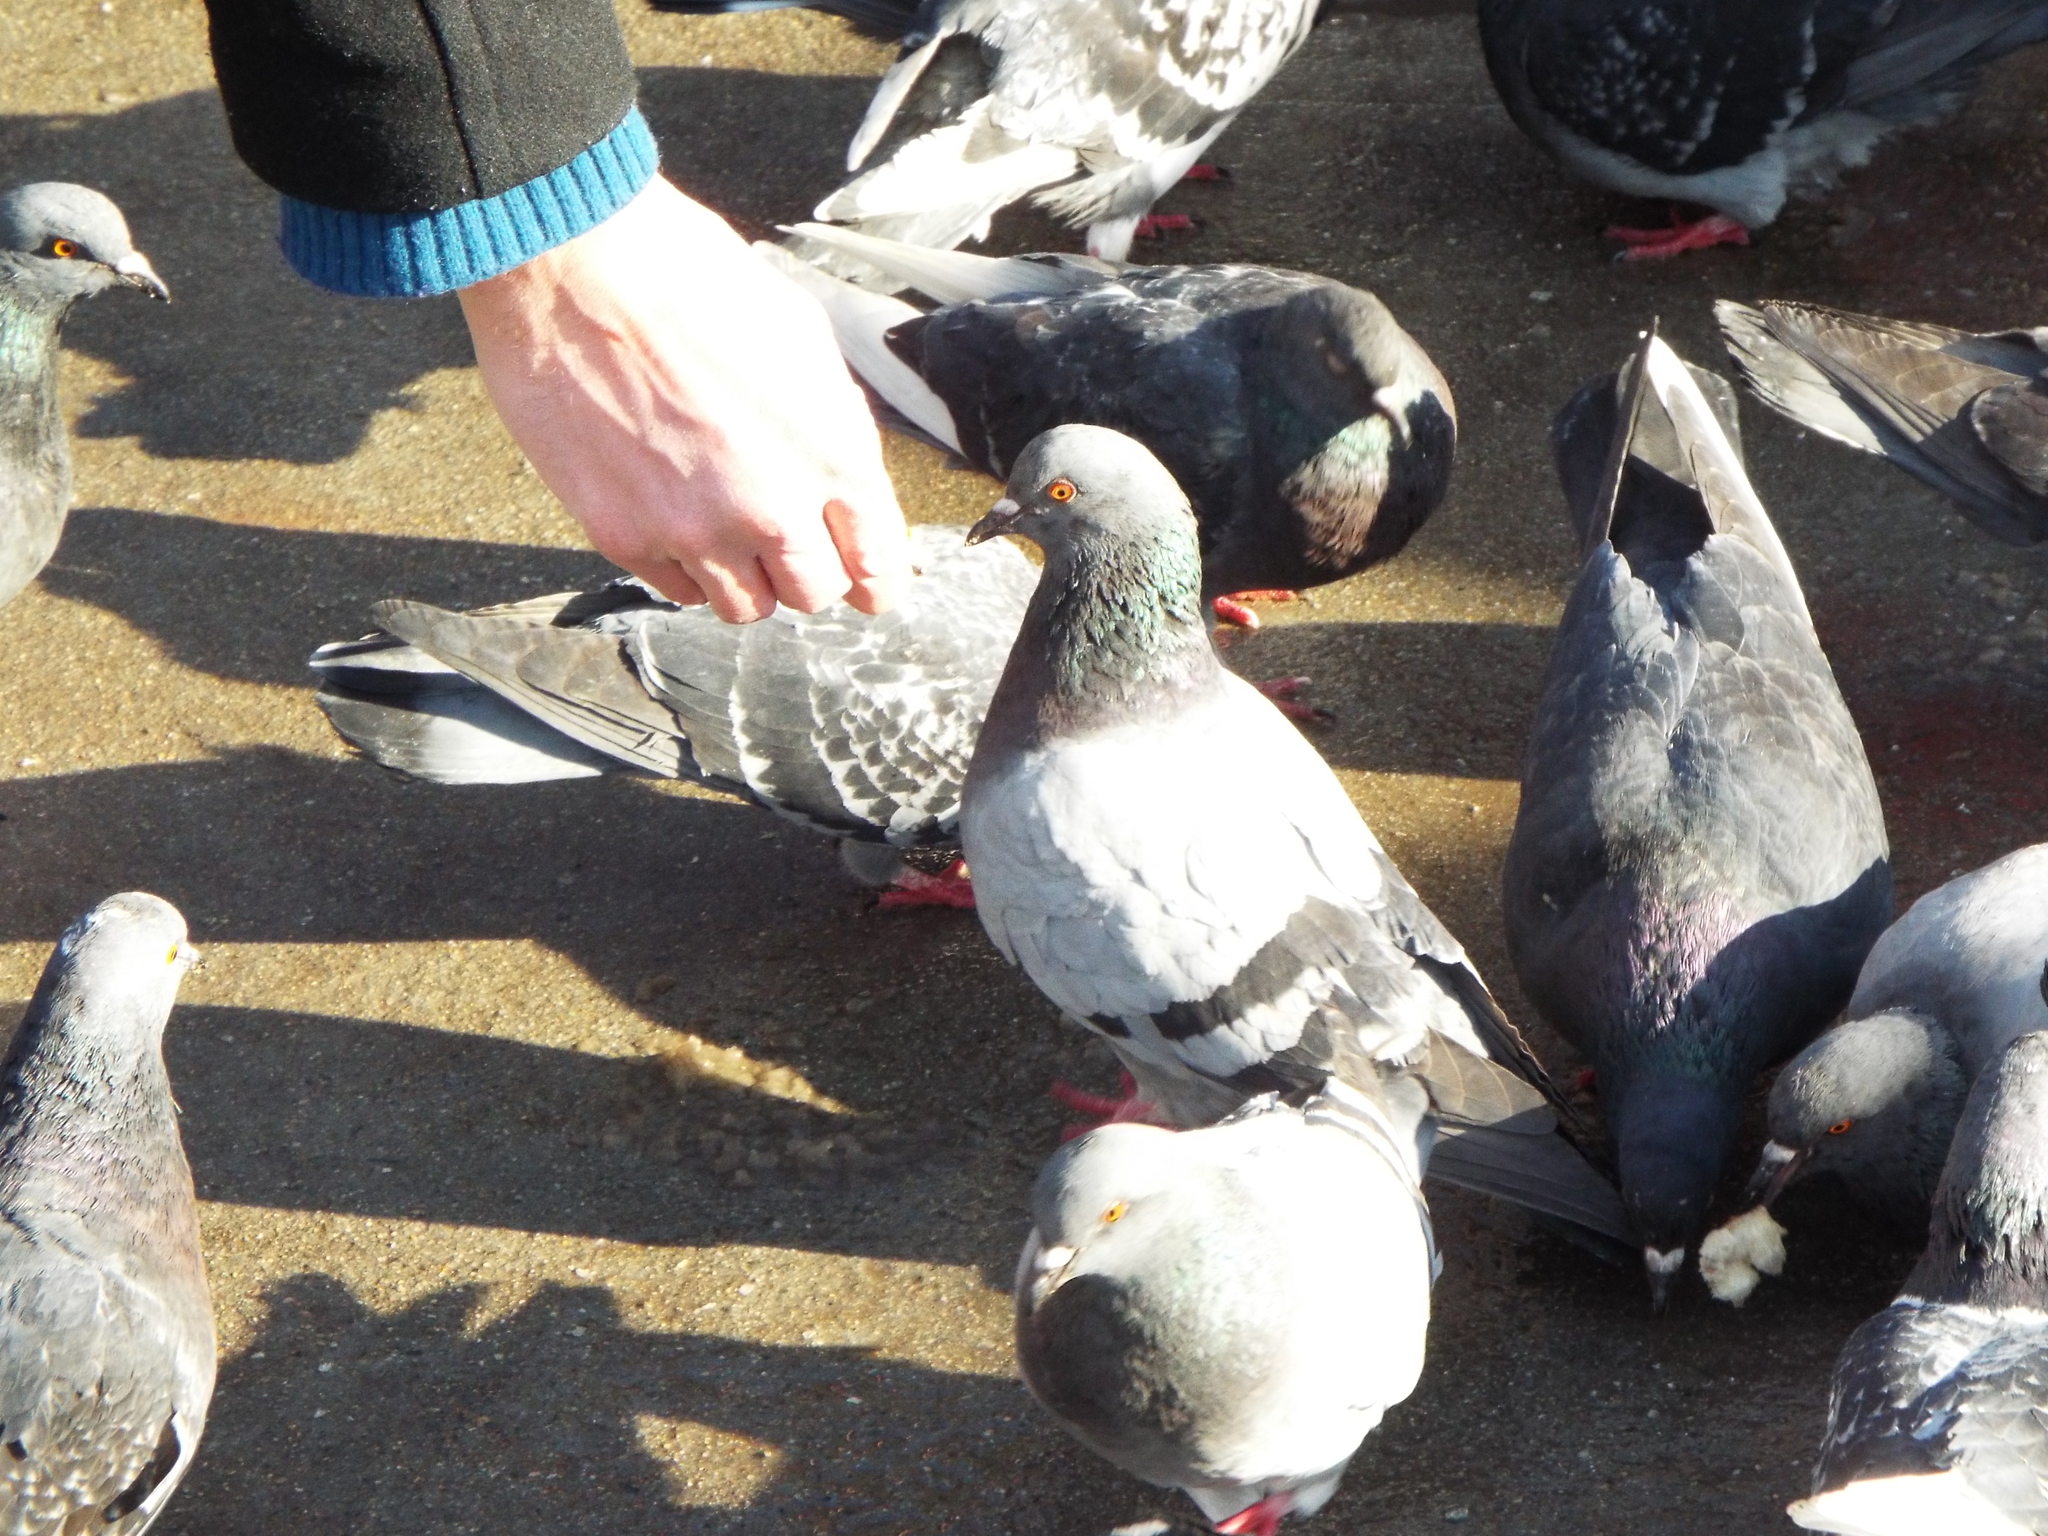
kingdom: Animalia
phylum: Chordata
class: Aves
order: Columbiformes
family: Columbidae
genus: Columba
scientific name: Columba livia
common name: Rock pigeon
